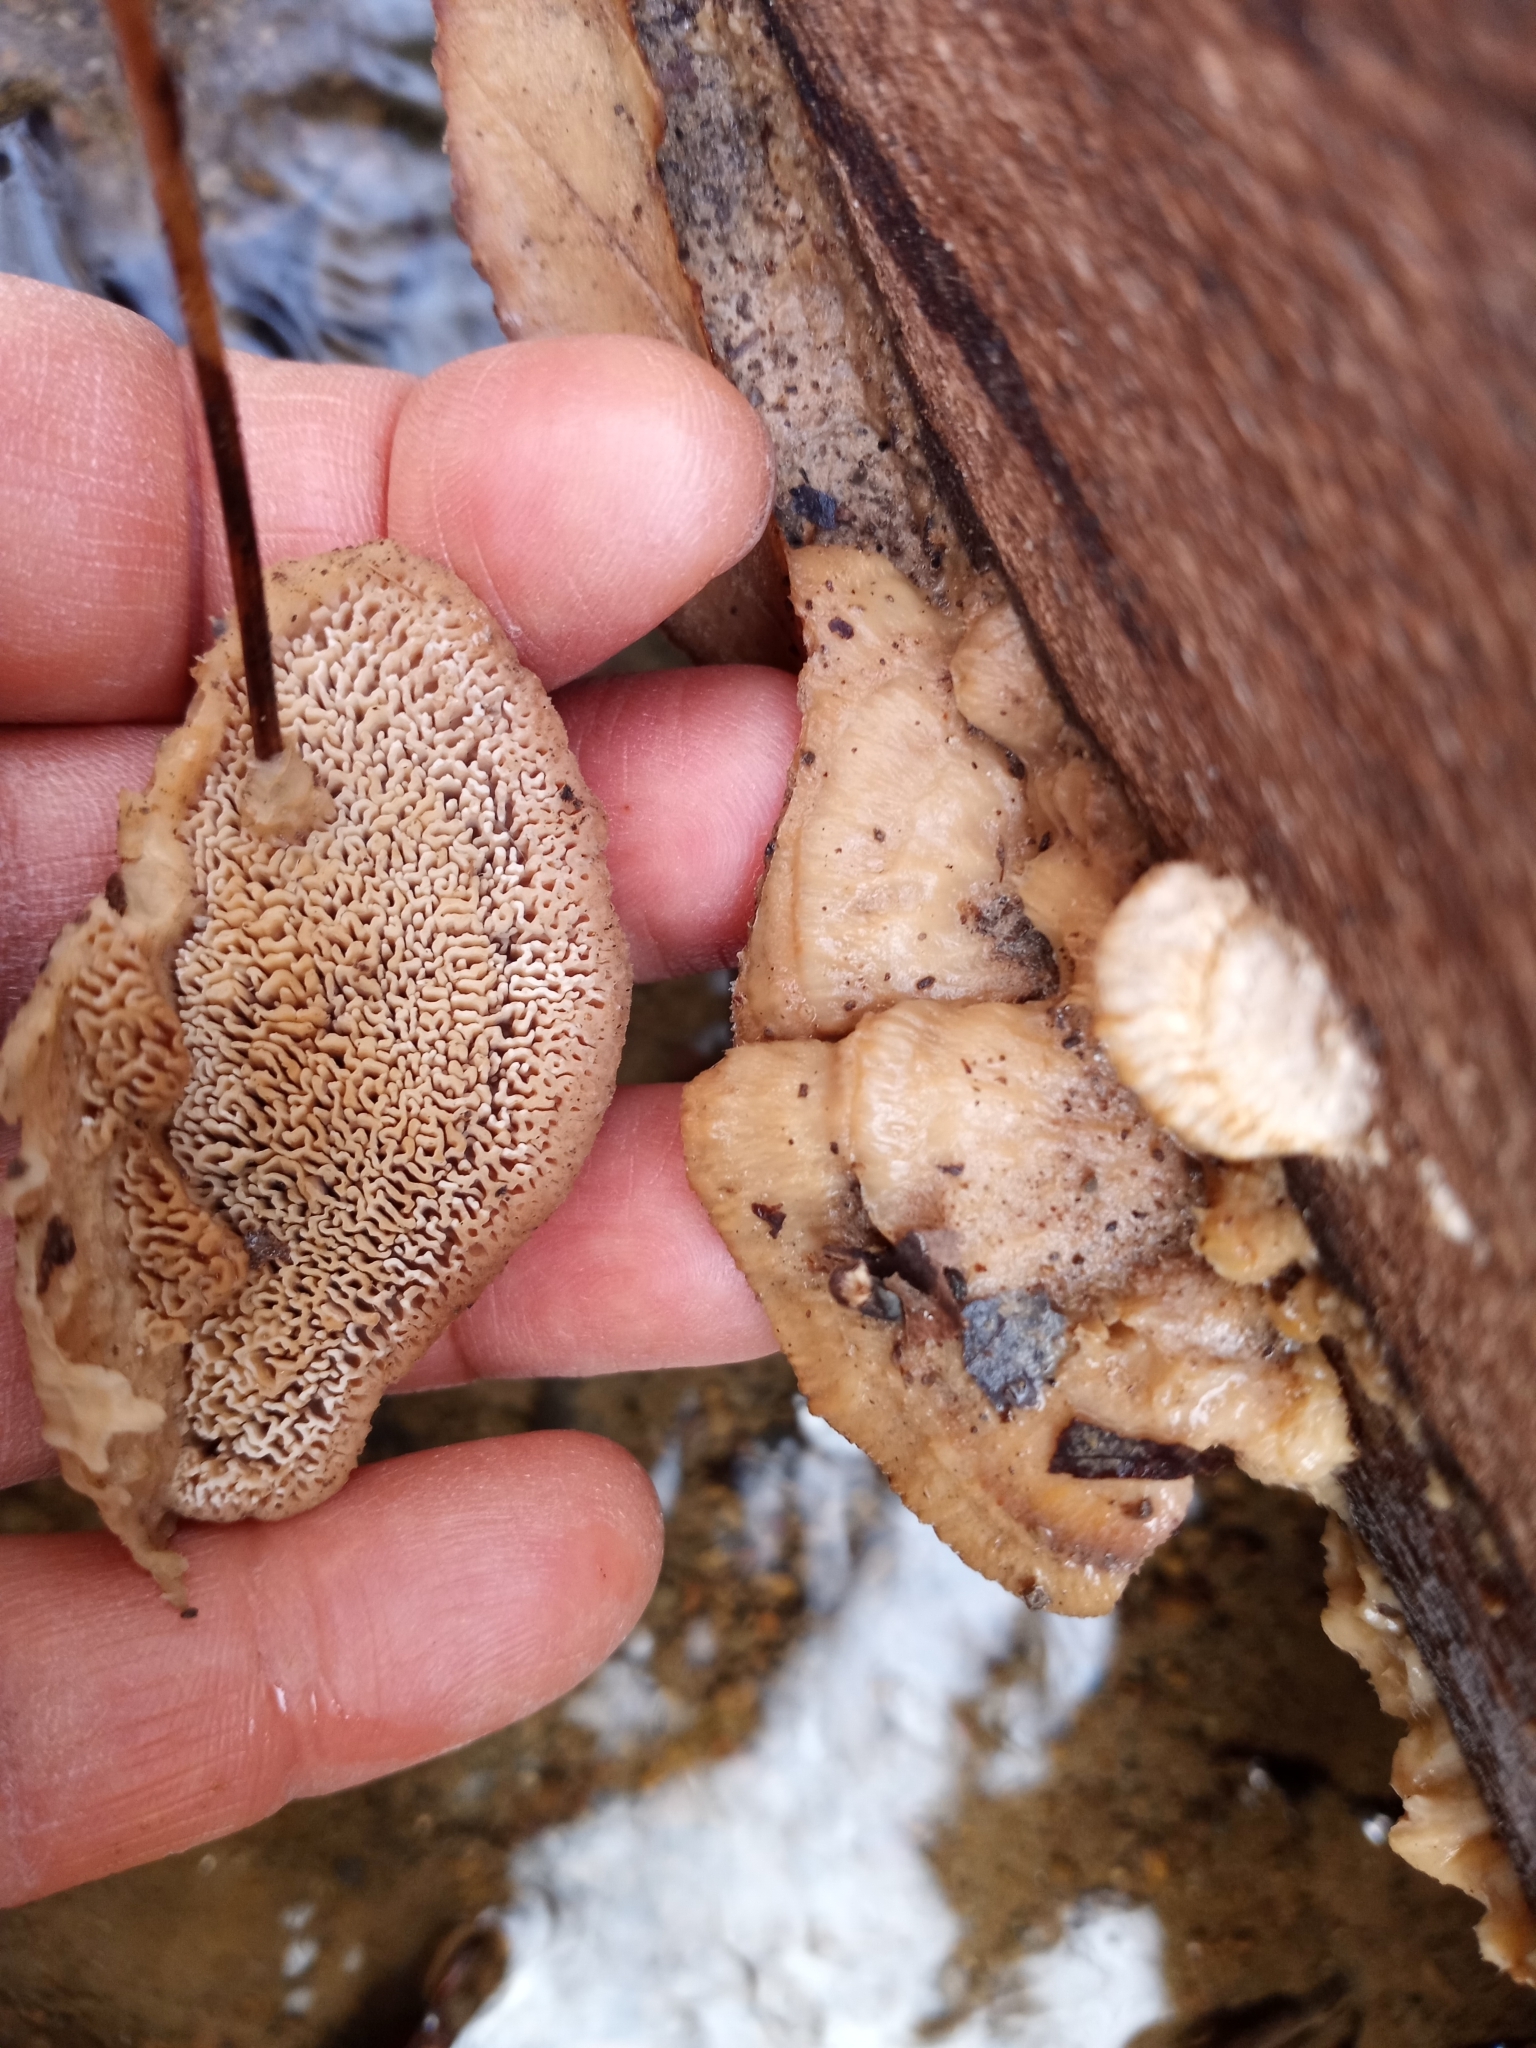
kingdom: Fungi
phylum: Basidiomycota
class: Agaricomycetes
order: Polyporales
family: Irpicaceae
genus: Trametopsis
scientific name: Trametopsis cervina
